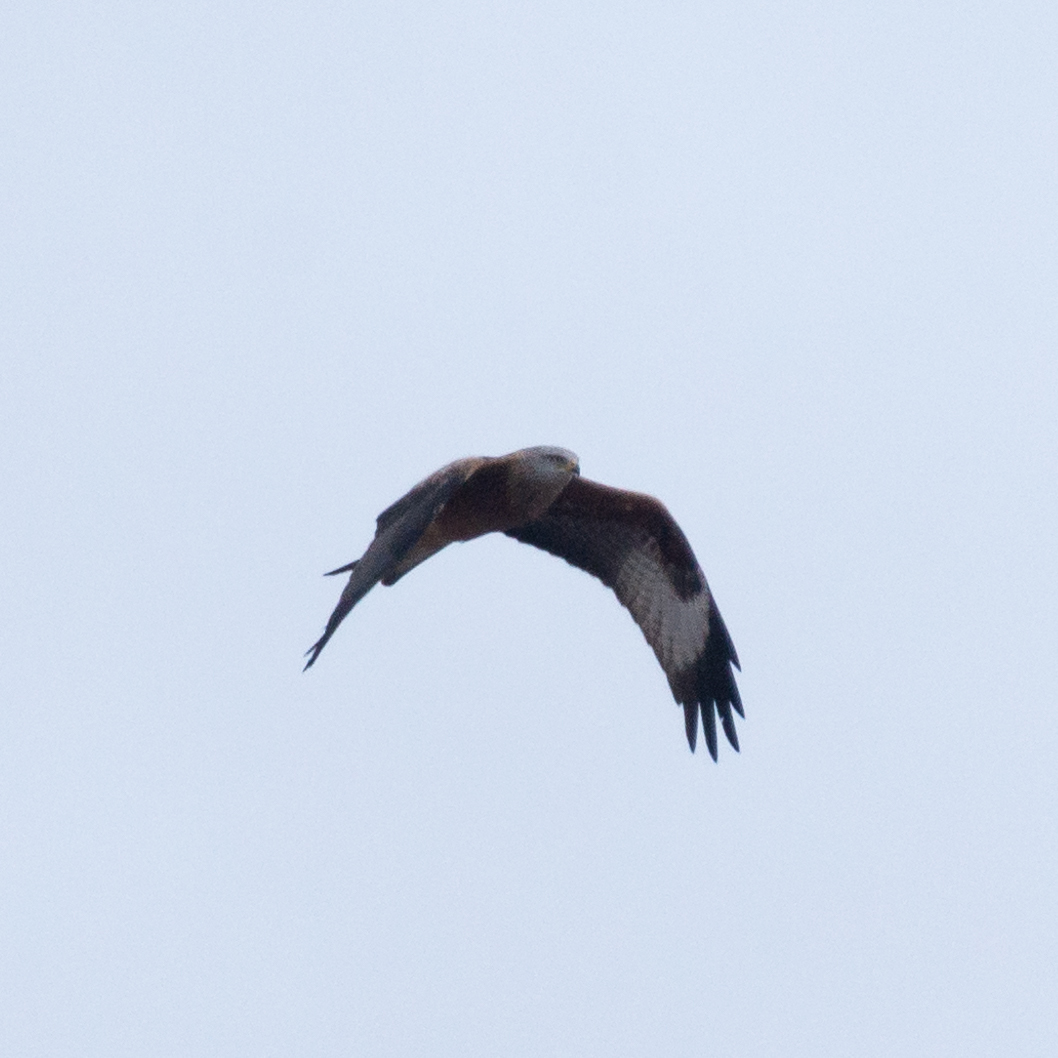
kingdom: Animalia
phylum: Chordata
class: Aves
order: Accipitriformes
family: Accipitridae
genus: Milvus
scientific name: Milvus milvus
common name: Red kite
